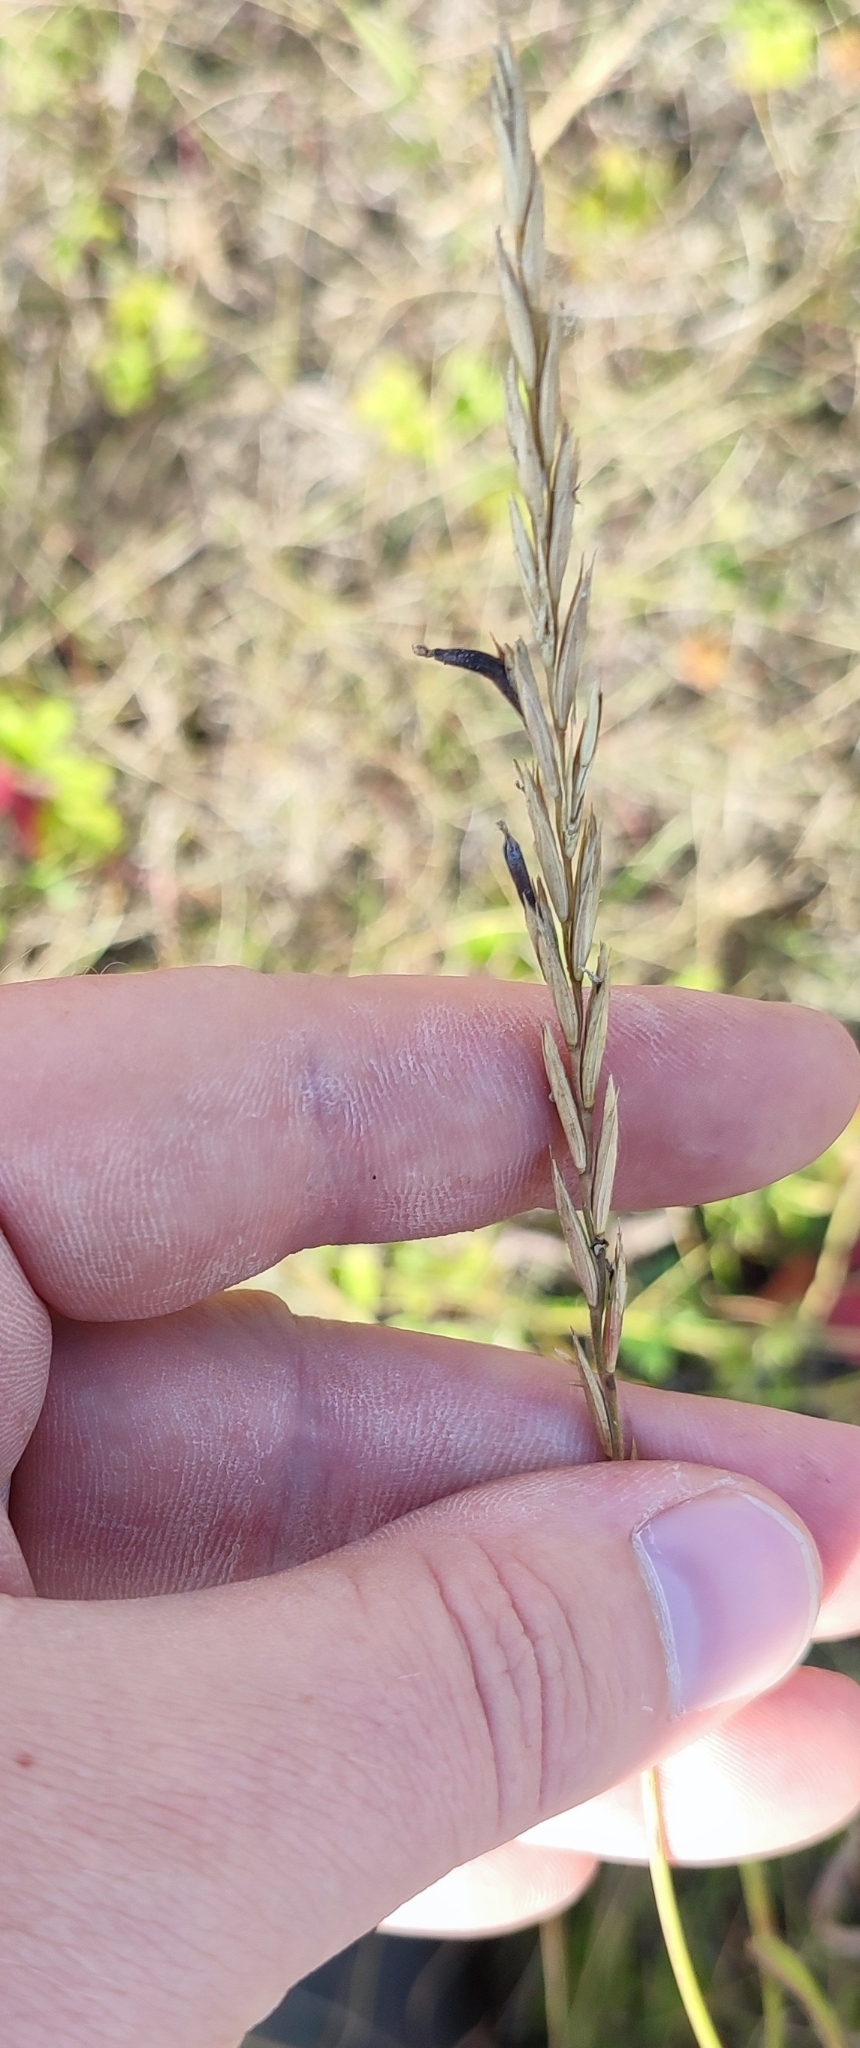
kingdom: Plantae
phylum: Tracheophyta
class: Liliopsida
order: Poales
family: Poaceae
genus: Elymus
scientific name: Elymus repens
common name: Quackgrass
